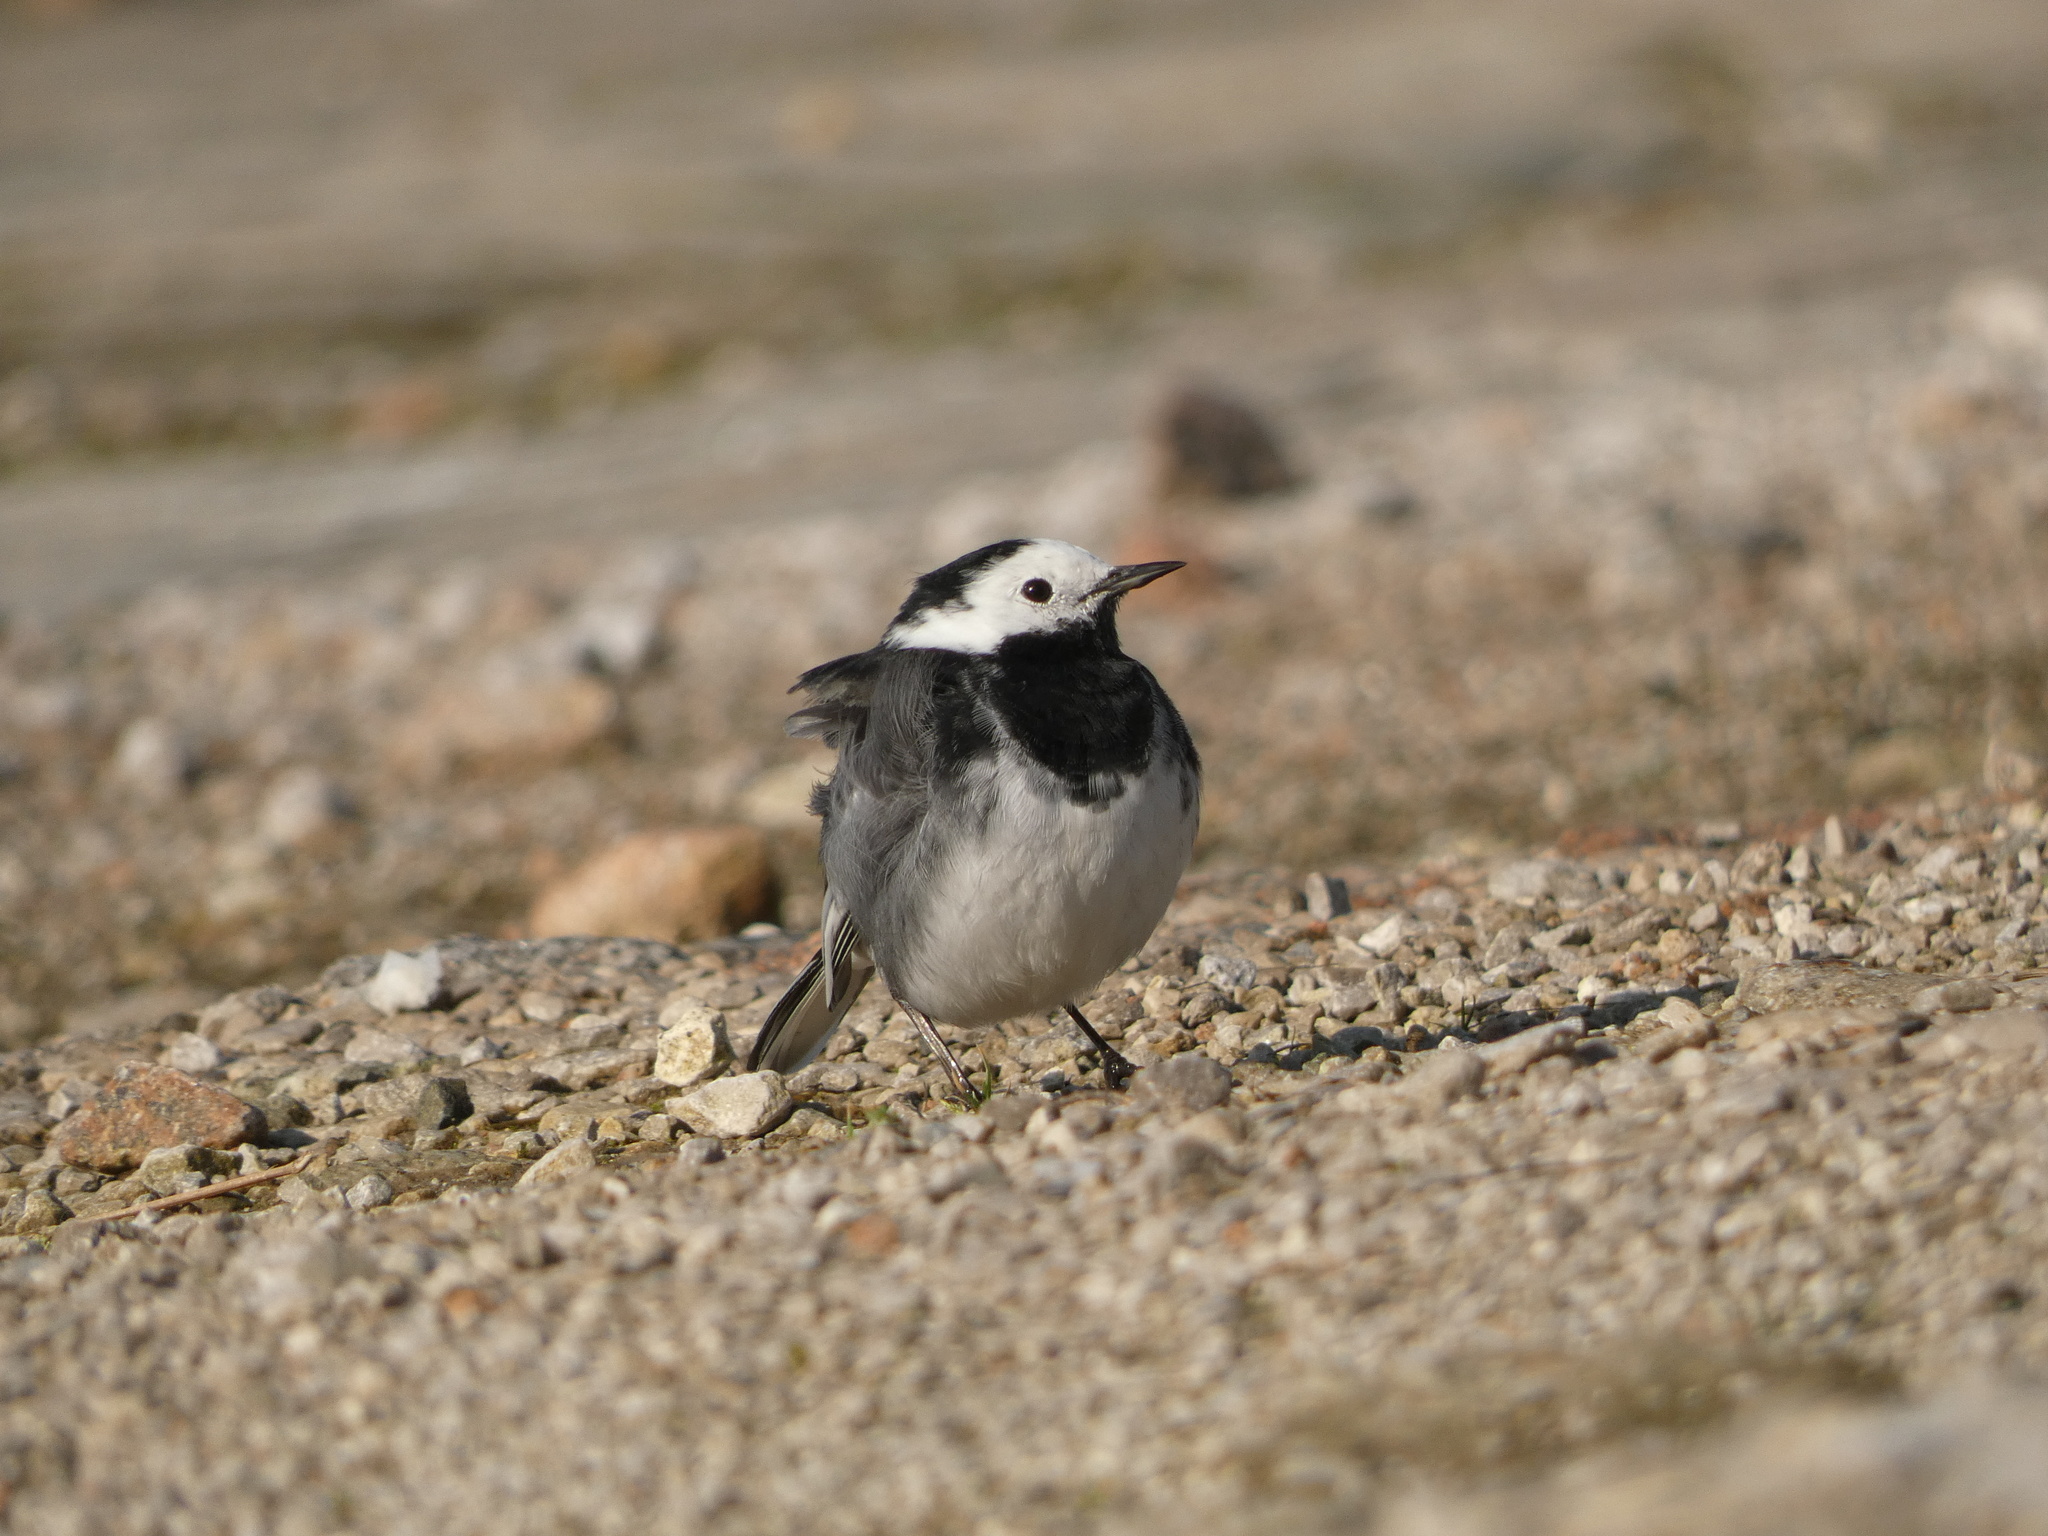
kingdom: Animalia
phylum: Chordata
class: Aves
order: Passeriformes
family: Motacillidae
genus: Motacilla
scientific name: Motacilla alba
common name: White wagtail
